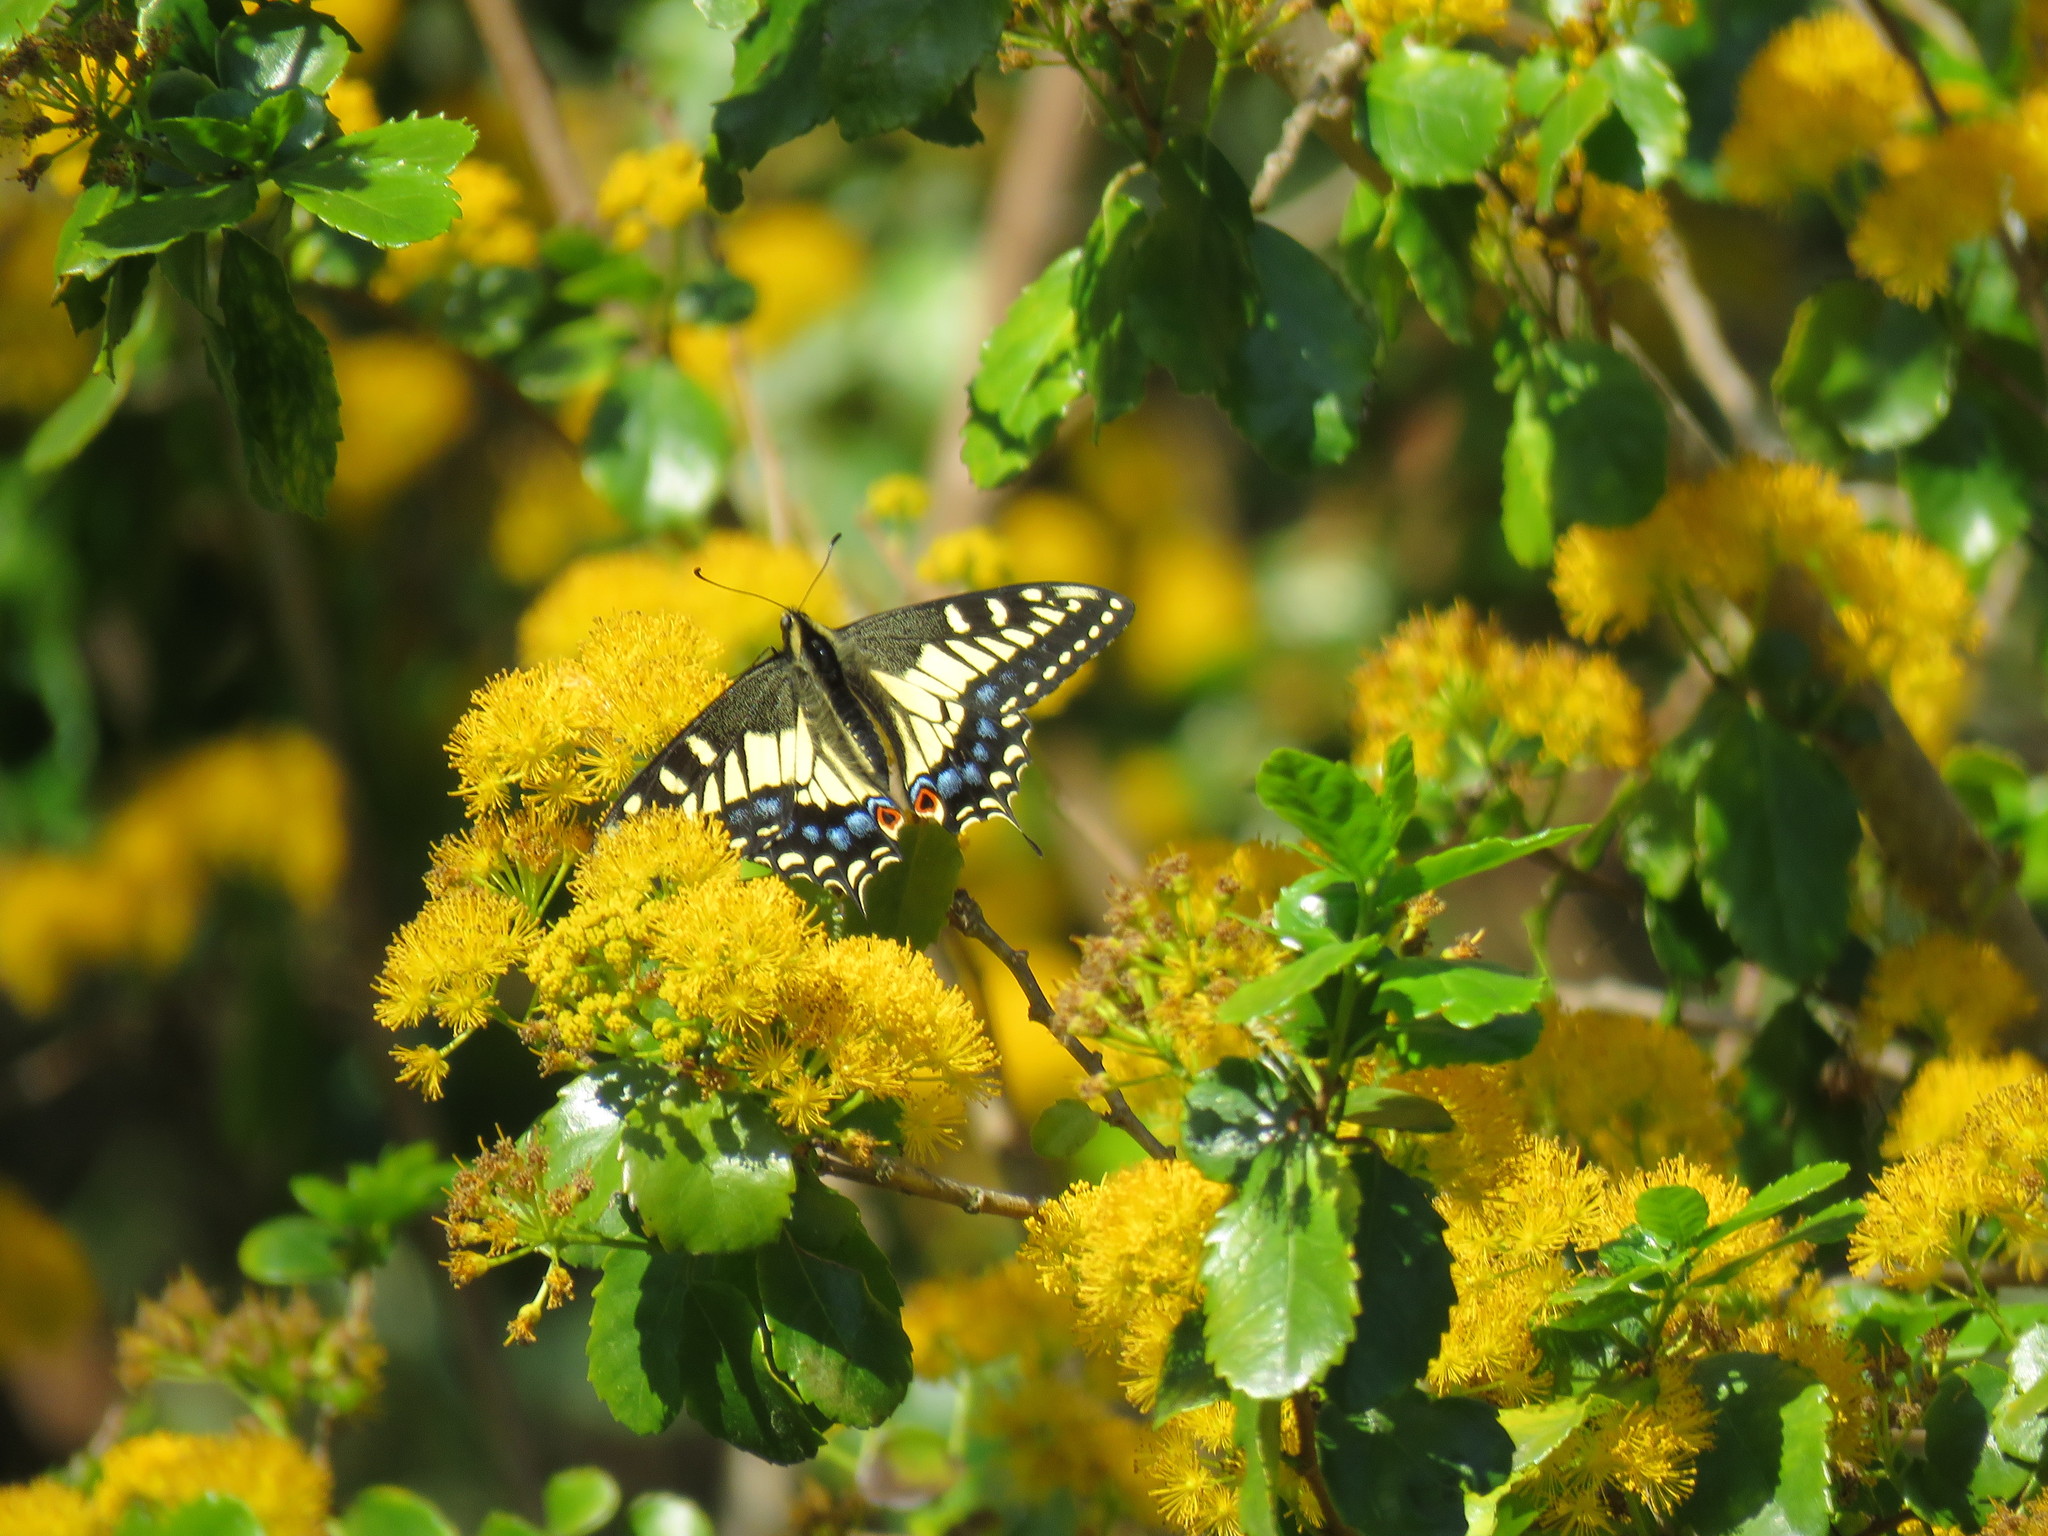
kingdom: Animalia
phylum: Arthropoda
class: Insecta
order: Lepidoptera
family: Papilionidae
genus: Papilio
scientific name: Papilio zelicaon
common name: Anise swallowtail
